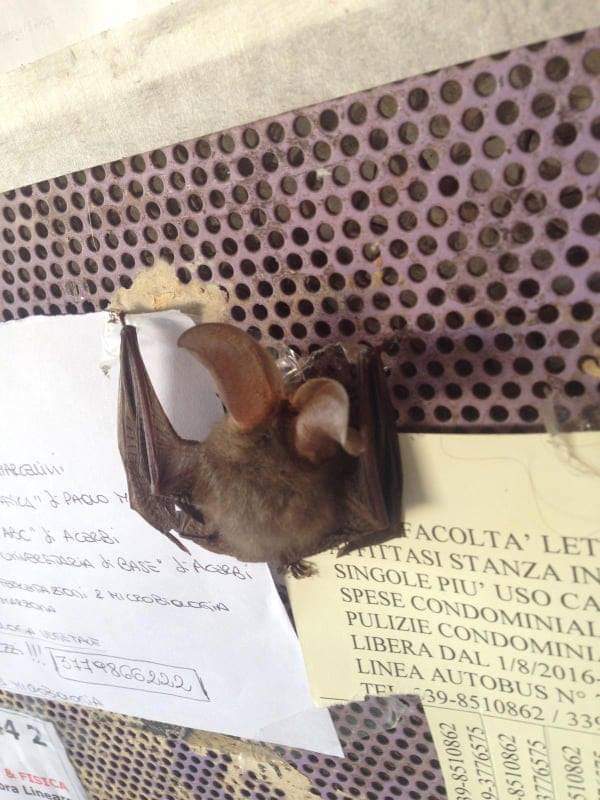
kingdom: Animalia
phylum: Chordata
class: Mammalia
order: Chiroptera
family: Vespertilionidae
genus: Plecotus
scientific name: Plecotus austriacus
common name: Grey long-eared bat
